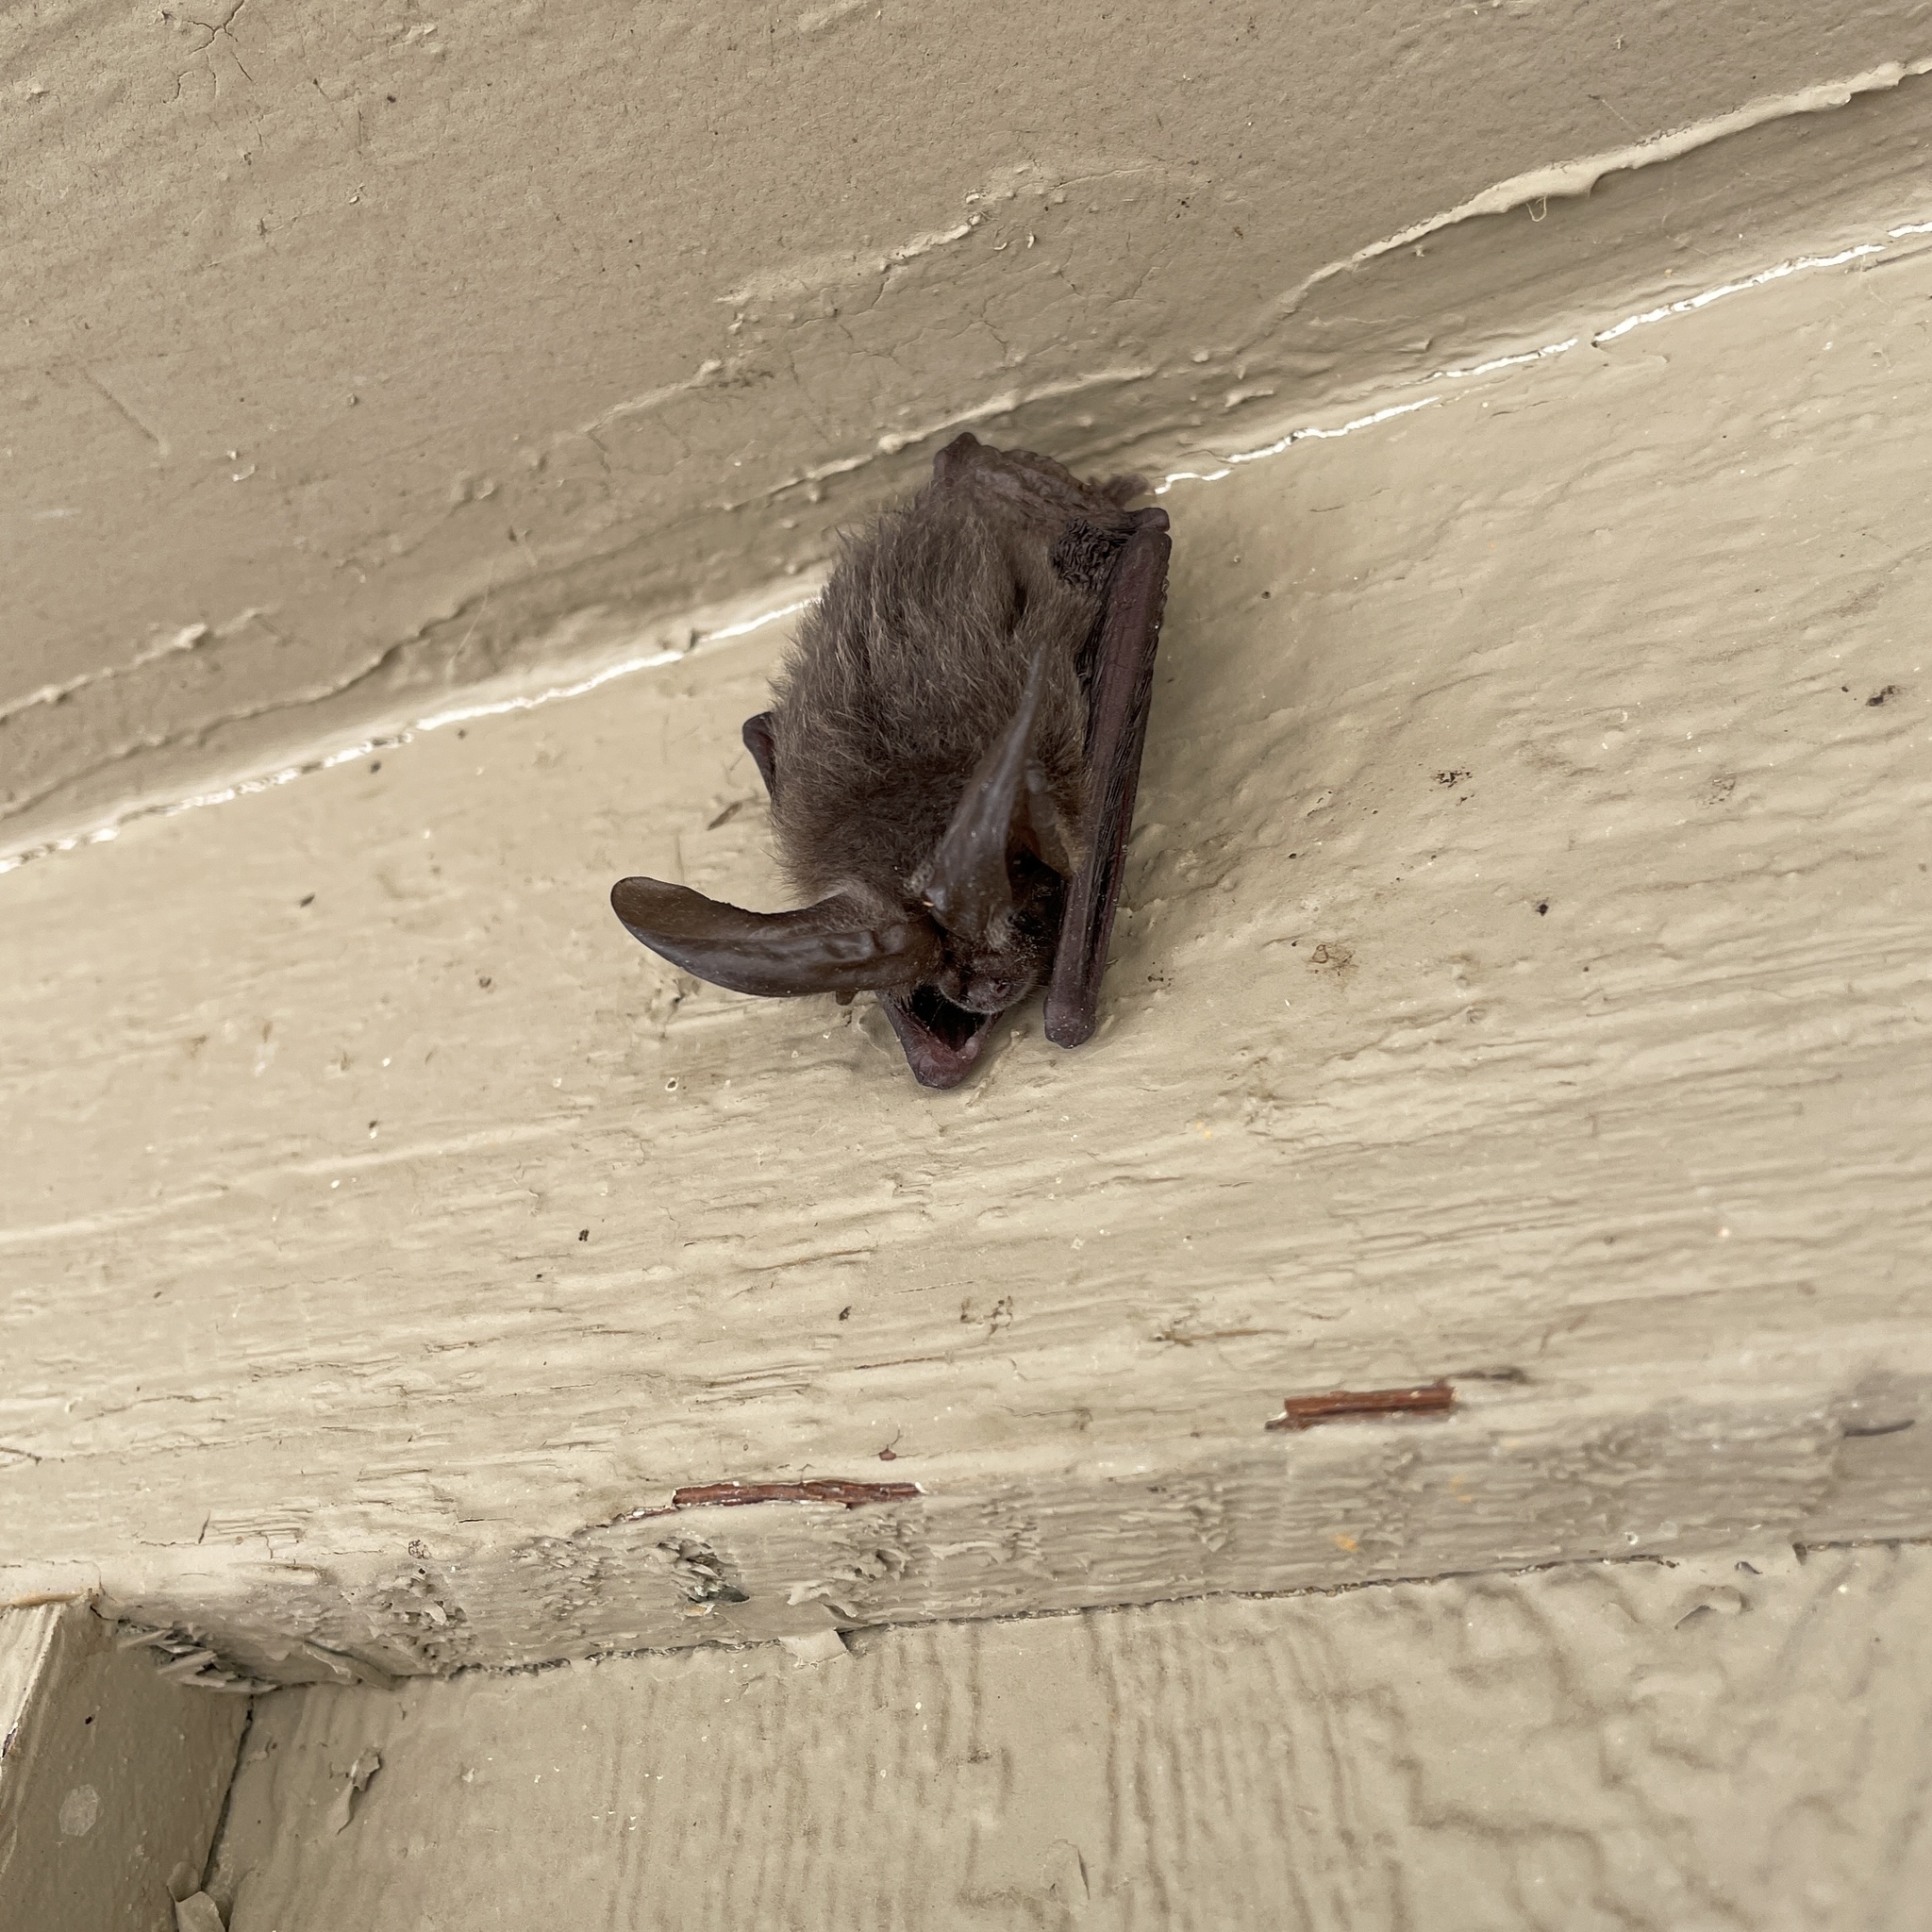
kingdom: Animalia
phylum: Chordata
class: Mammalia
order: Chiroptera
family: Vespertilionidae
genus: Corynorhinus
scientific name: Corynorhinus townsendii
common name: Townsend's big-eared bat
